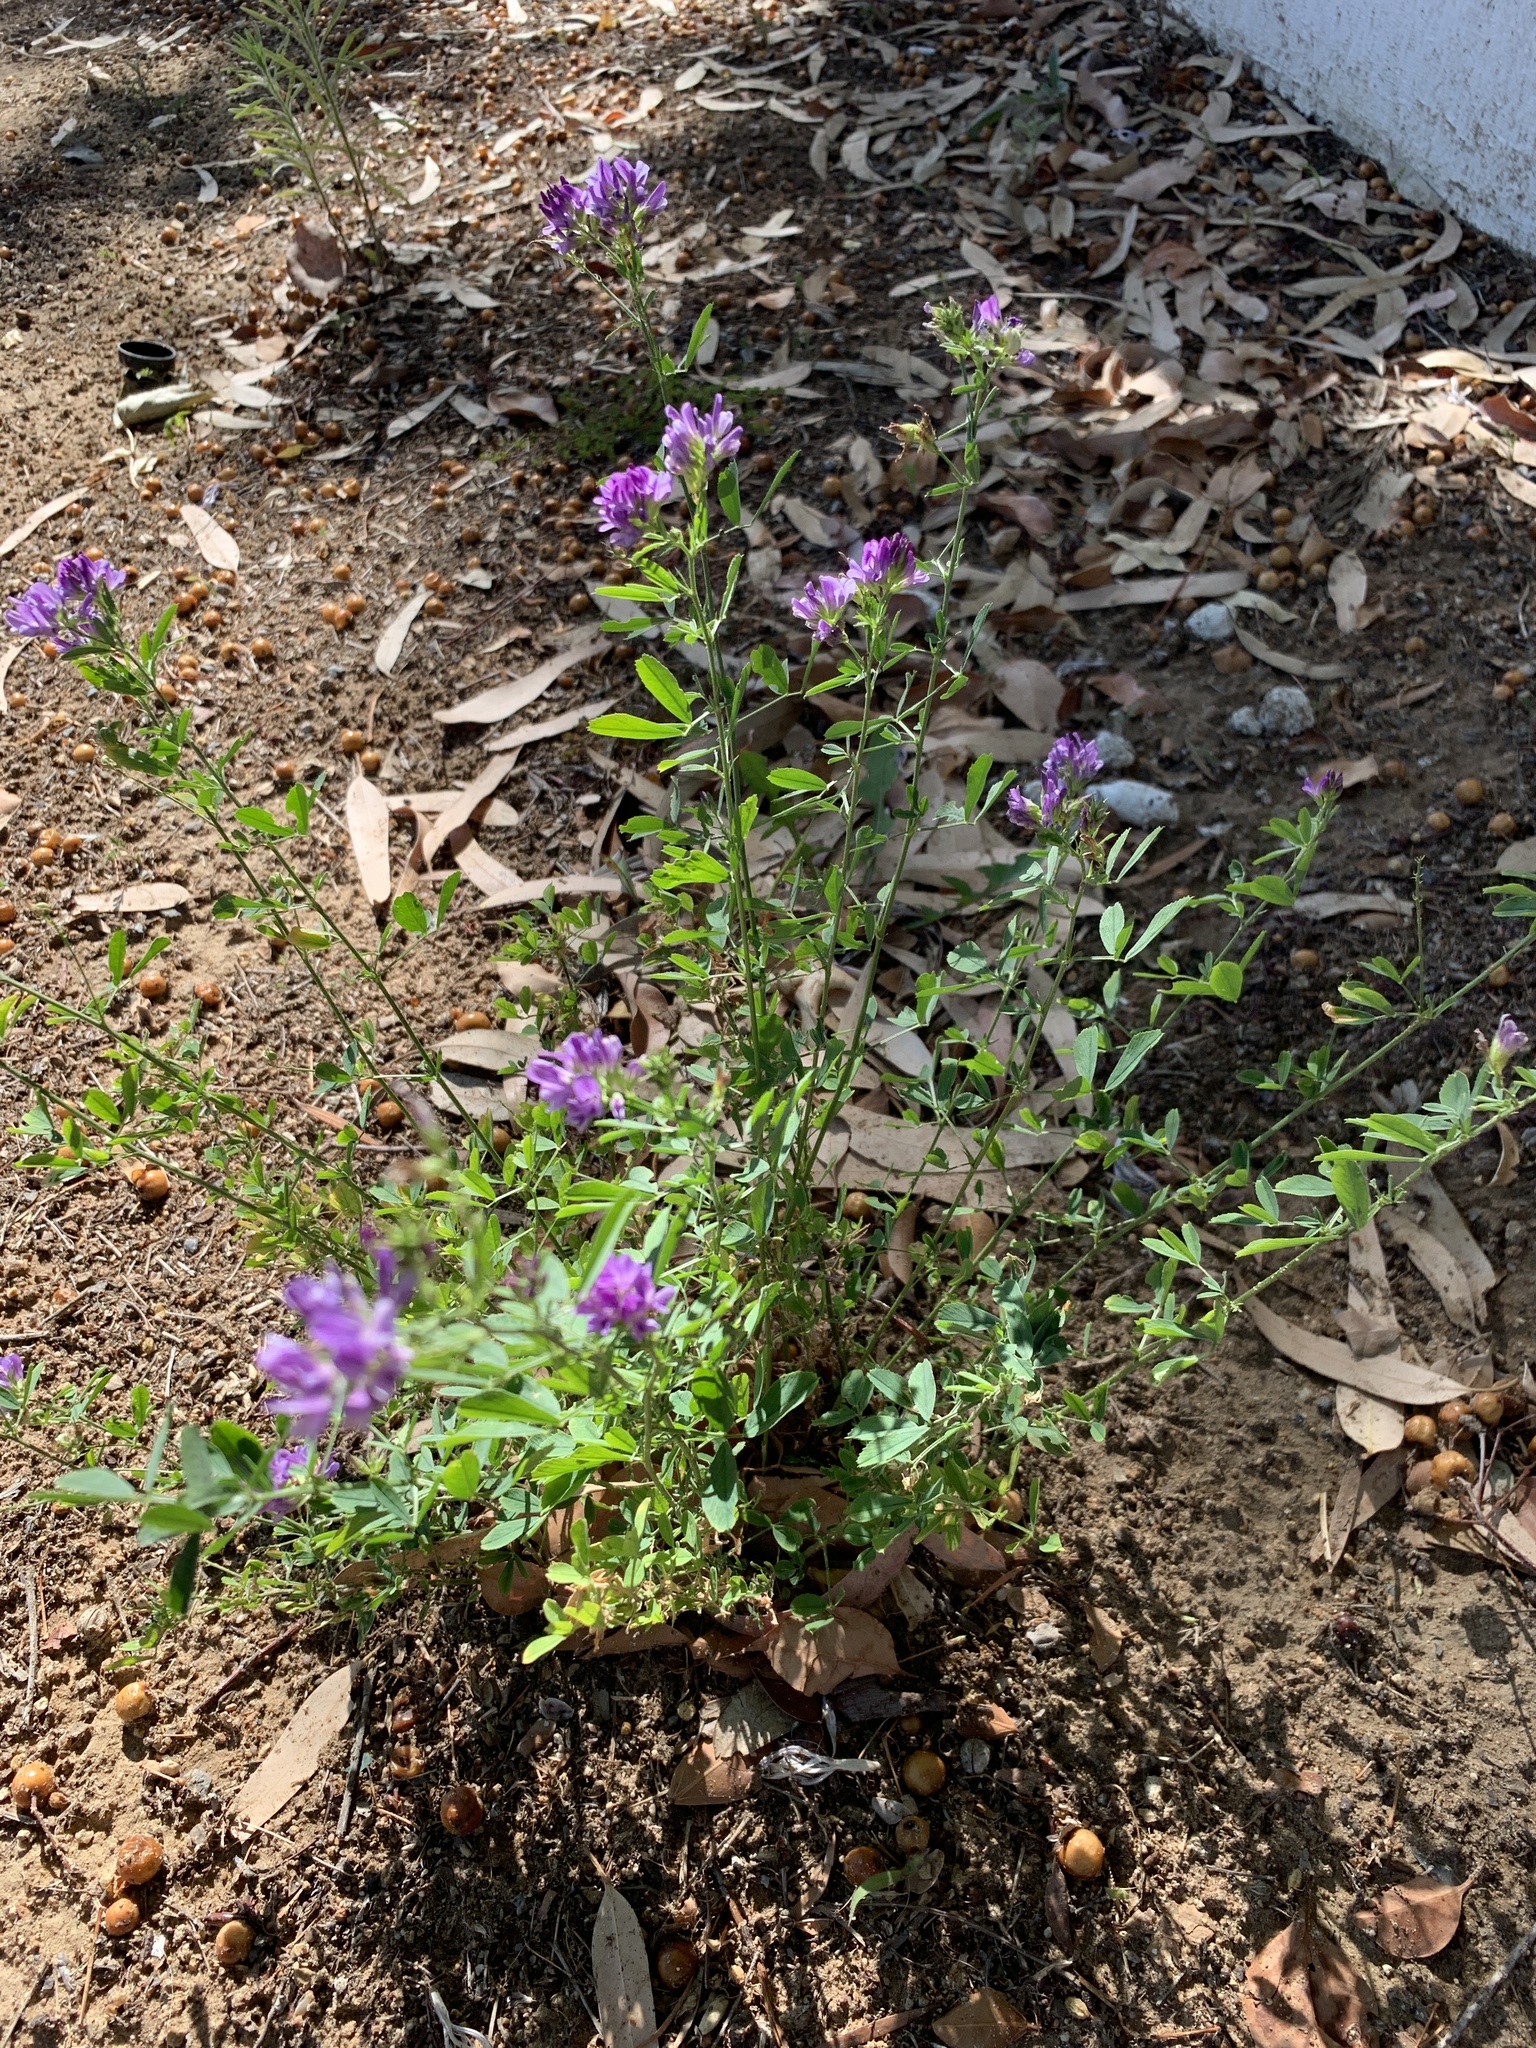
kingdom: Plantae
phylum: Tracheophyta
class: Magnoliopsida
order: Fabales
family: Fabaceae
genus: Medicago
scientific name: Medicago sativa
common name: Alfalfa
